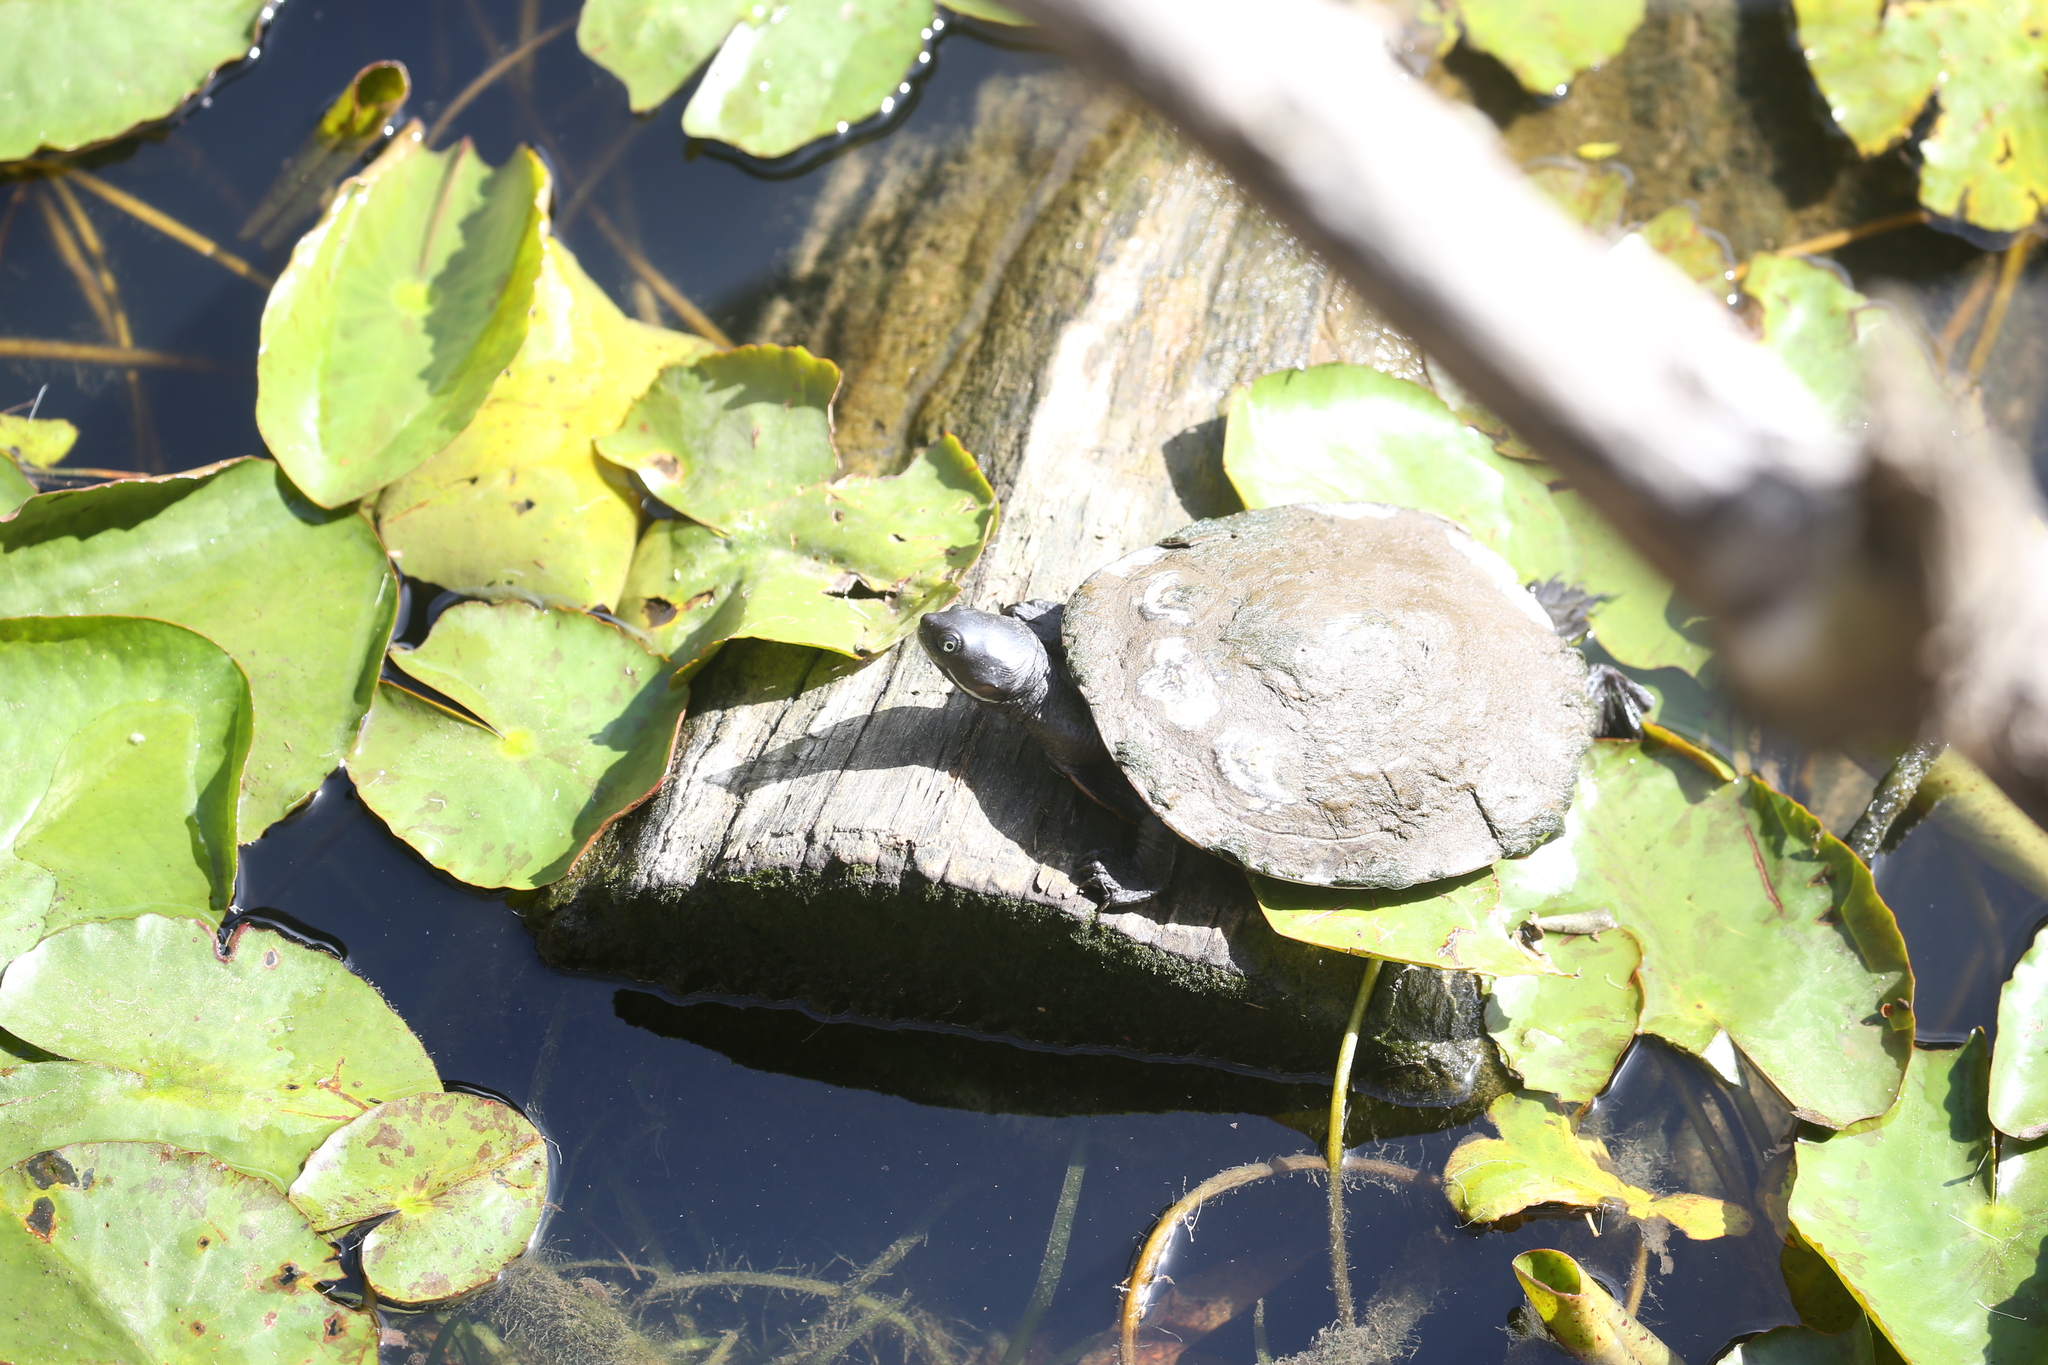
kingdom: Animalia
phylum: Chordata
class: Testudines
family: Chelidae
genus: Emydura
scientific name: Emydura macquarii
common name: Murray river turtle
